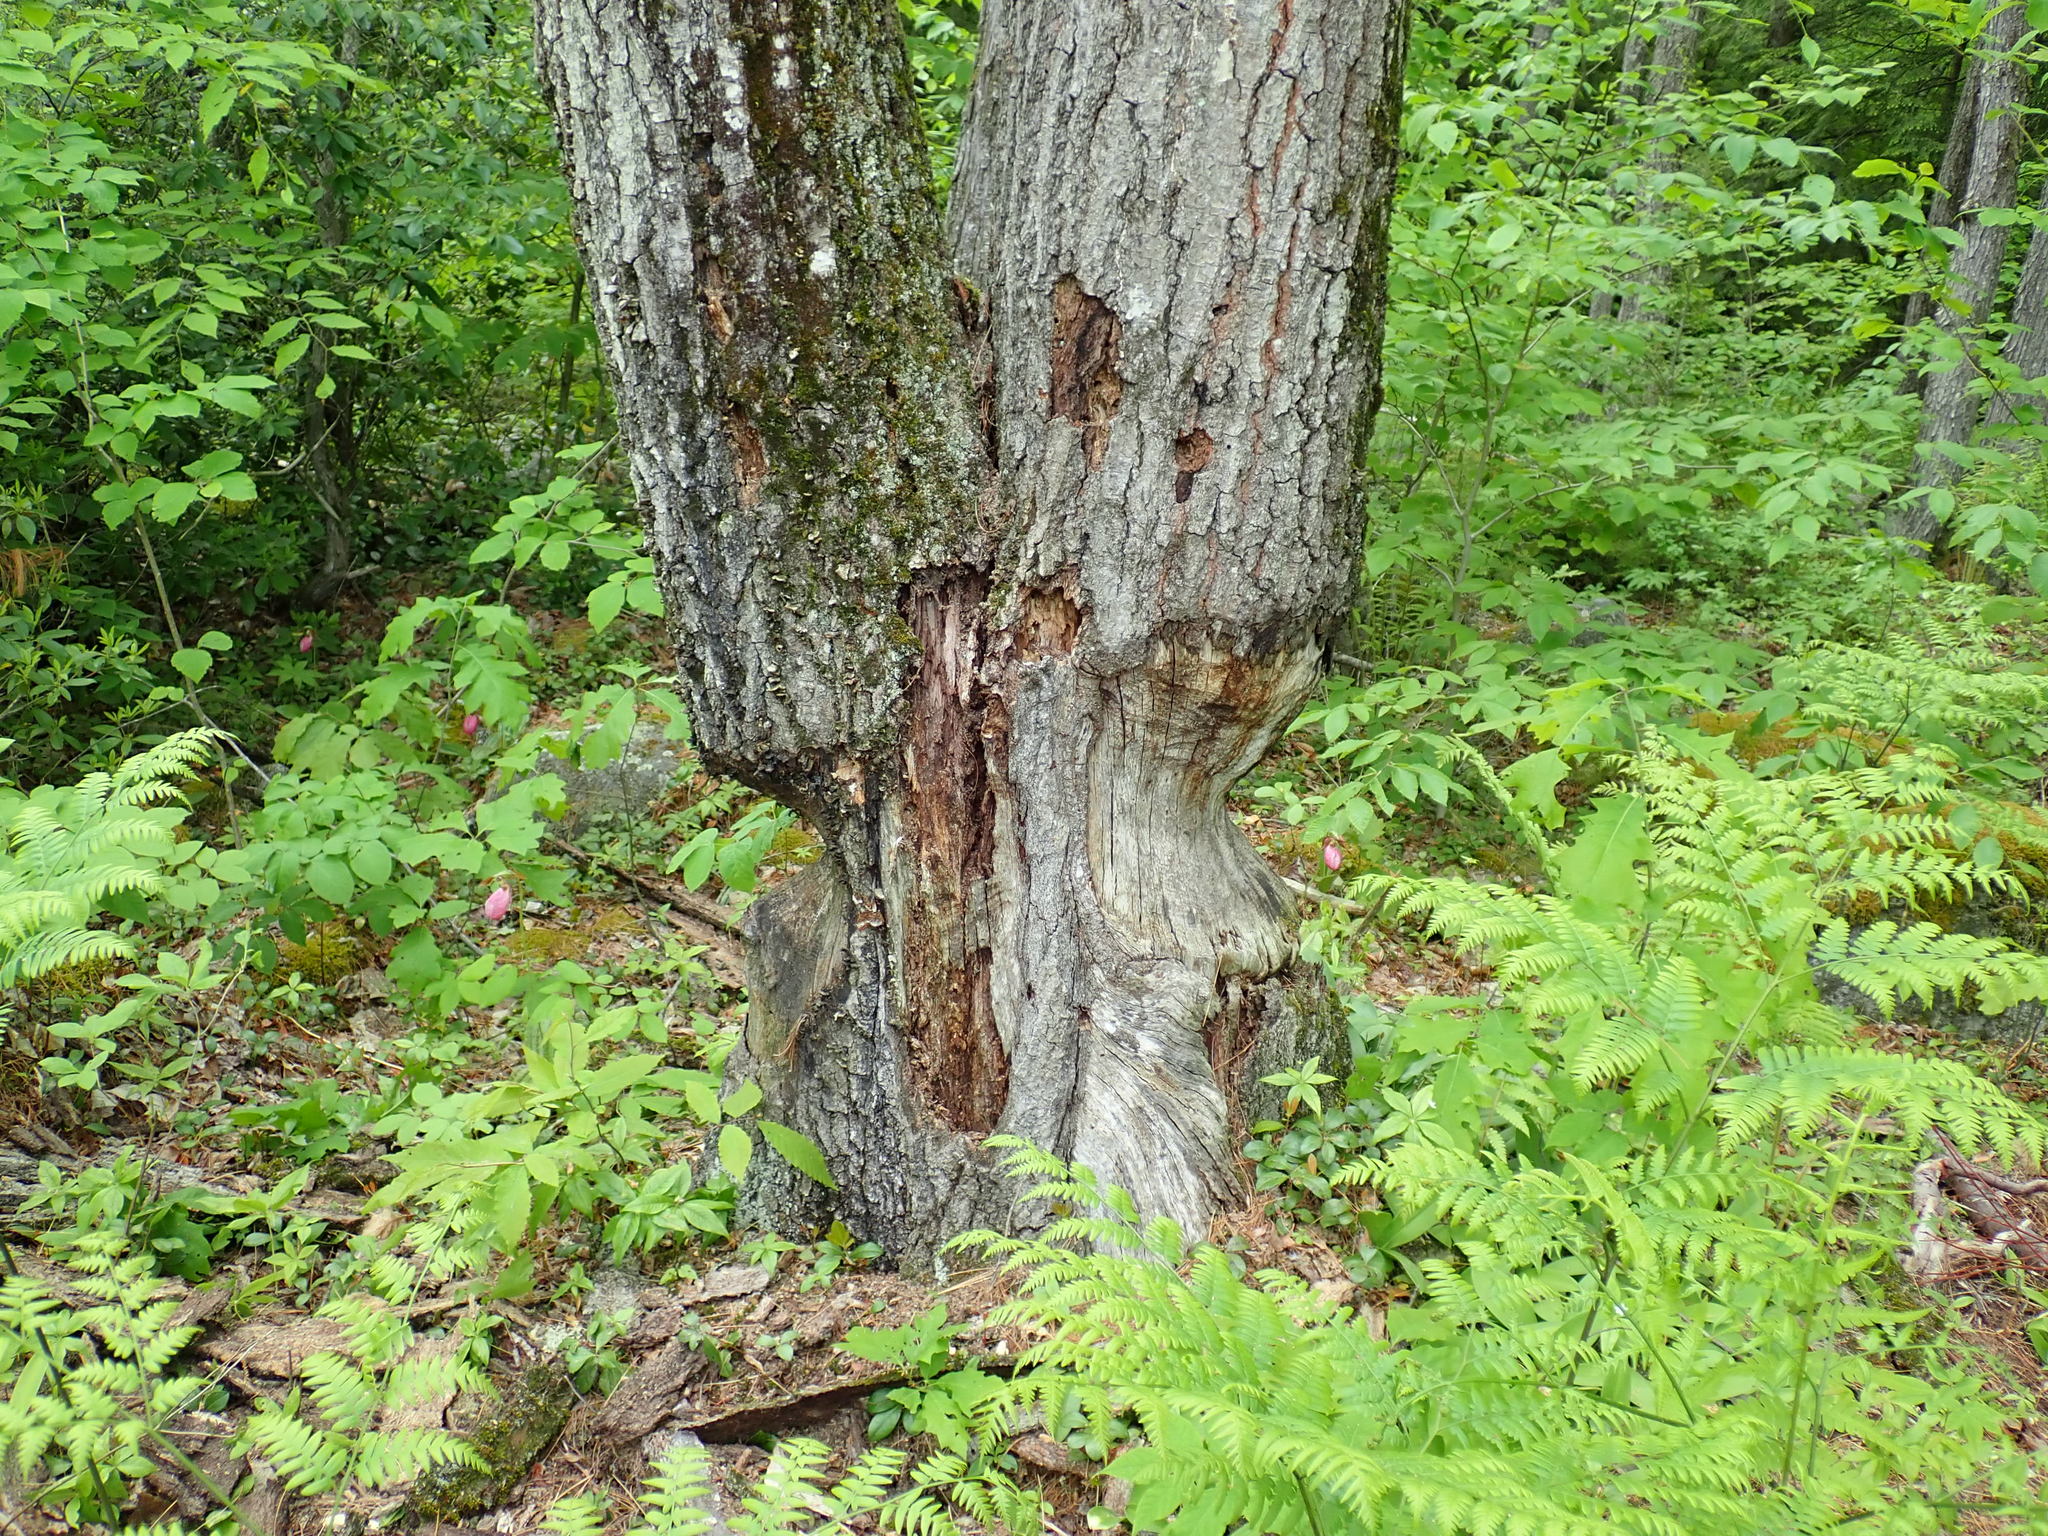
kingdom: Animalia
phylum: Chordata
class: Mammalia
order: Rodentia
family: Castoridae
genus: Castor
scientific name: Castor canadensis
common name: American beaver
